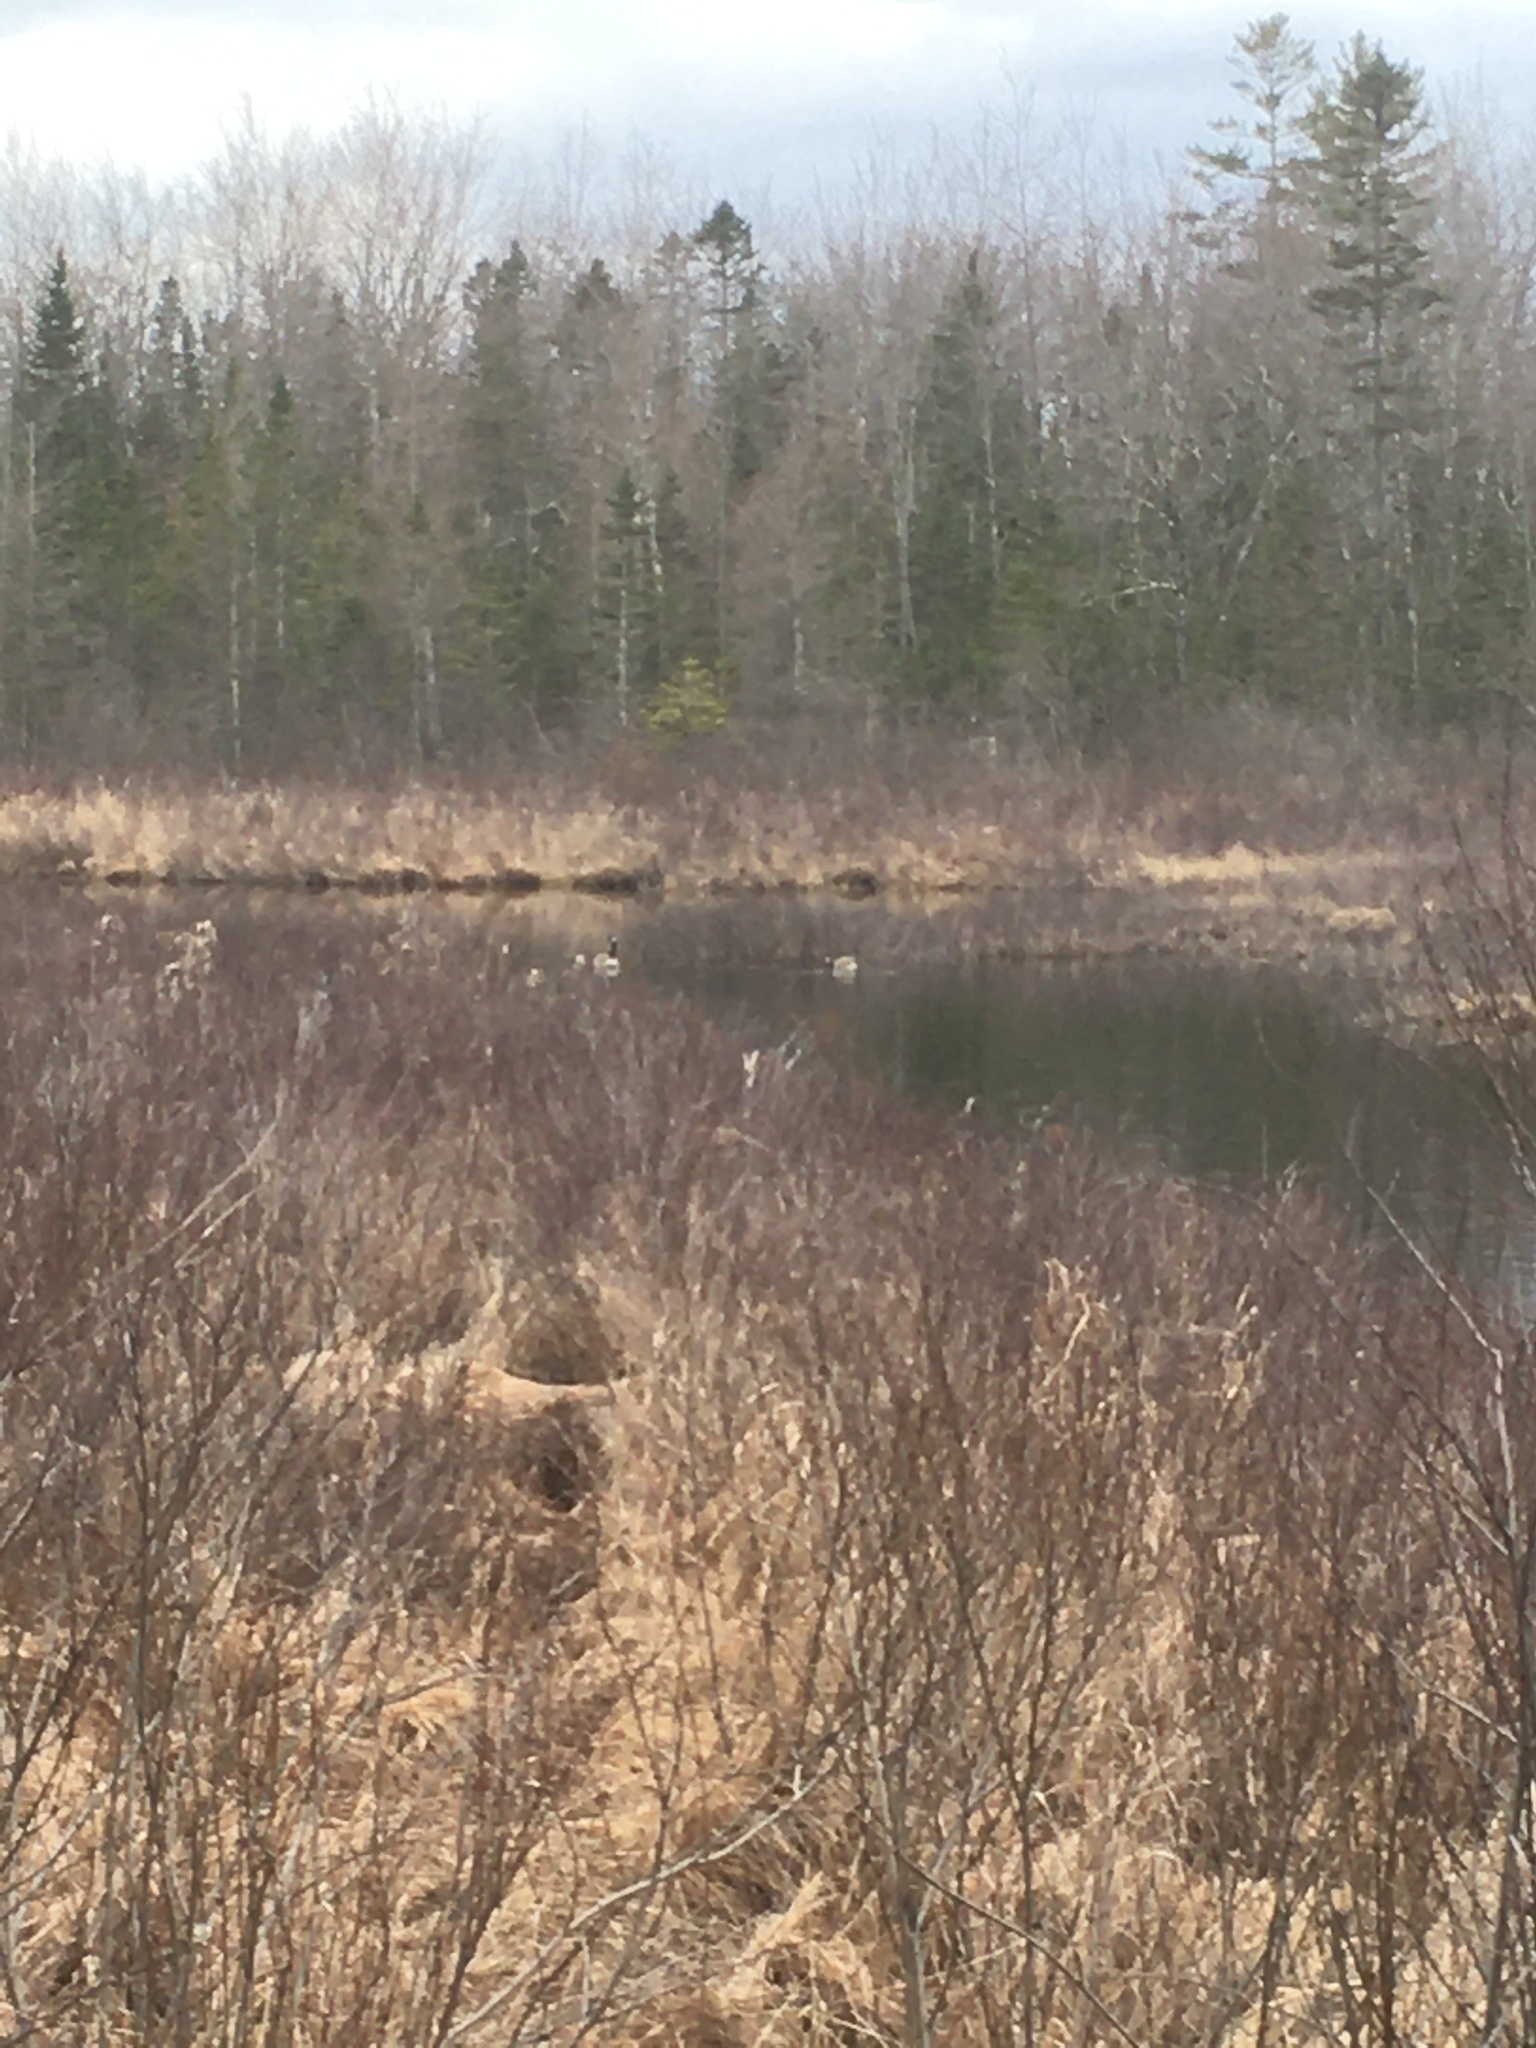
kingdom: Animalia
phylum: Chordata
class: Aves
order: Anseriformes
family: Anatidae
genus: Branta
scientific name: Branta canadensis
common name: Canada goose
